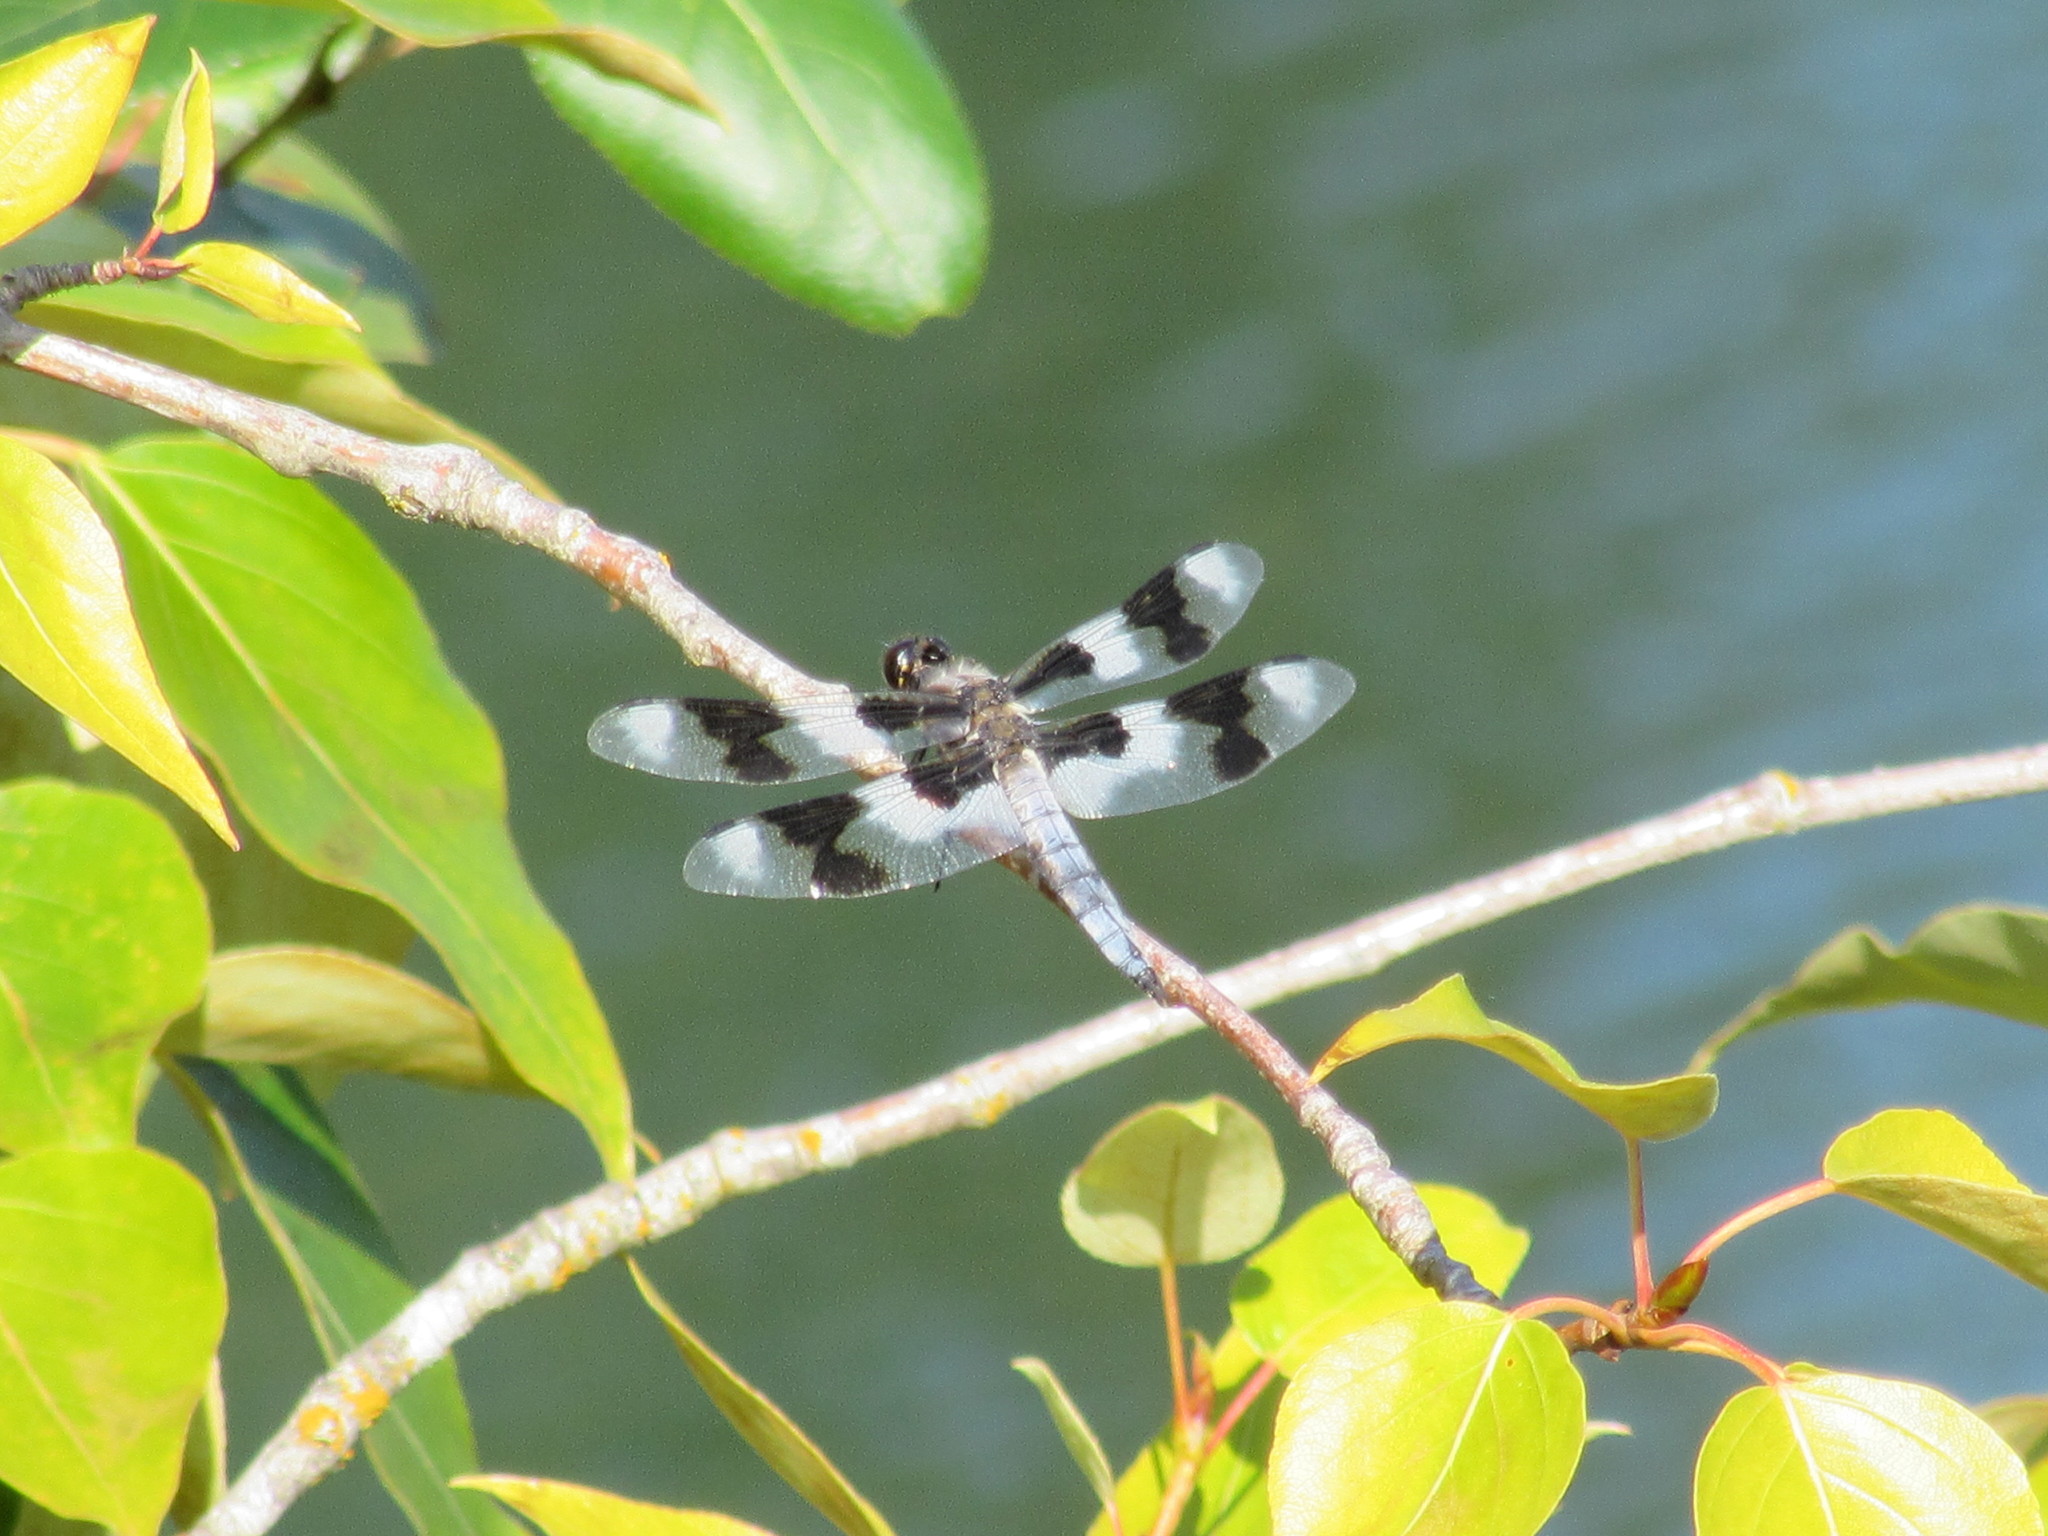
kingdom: Animalia
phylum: Arthropoda
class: Insecta
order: Odonata
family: Libellulidae
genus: Libellula
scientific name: Libellula forensis
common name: Eight-spotted skimmer
